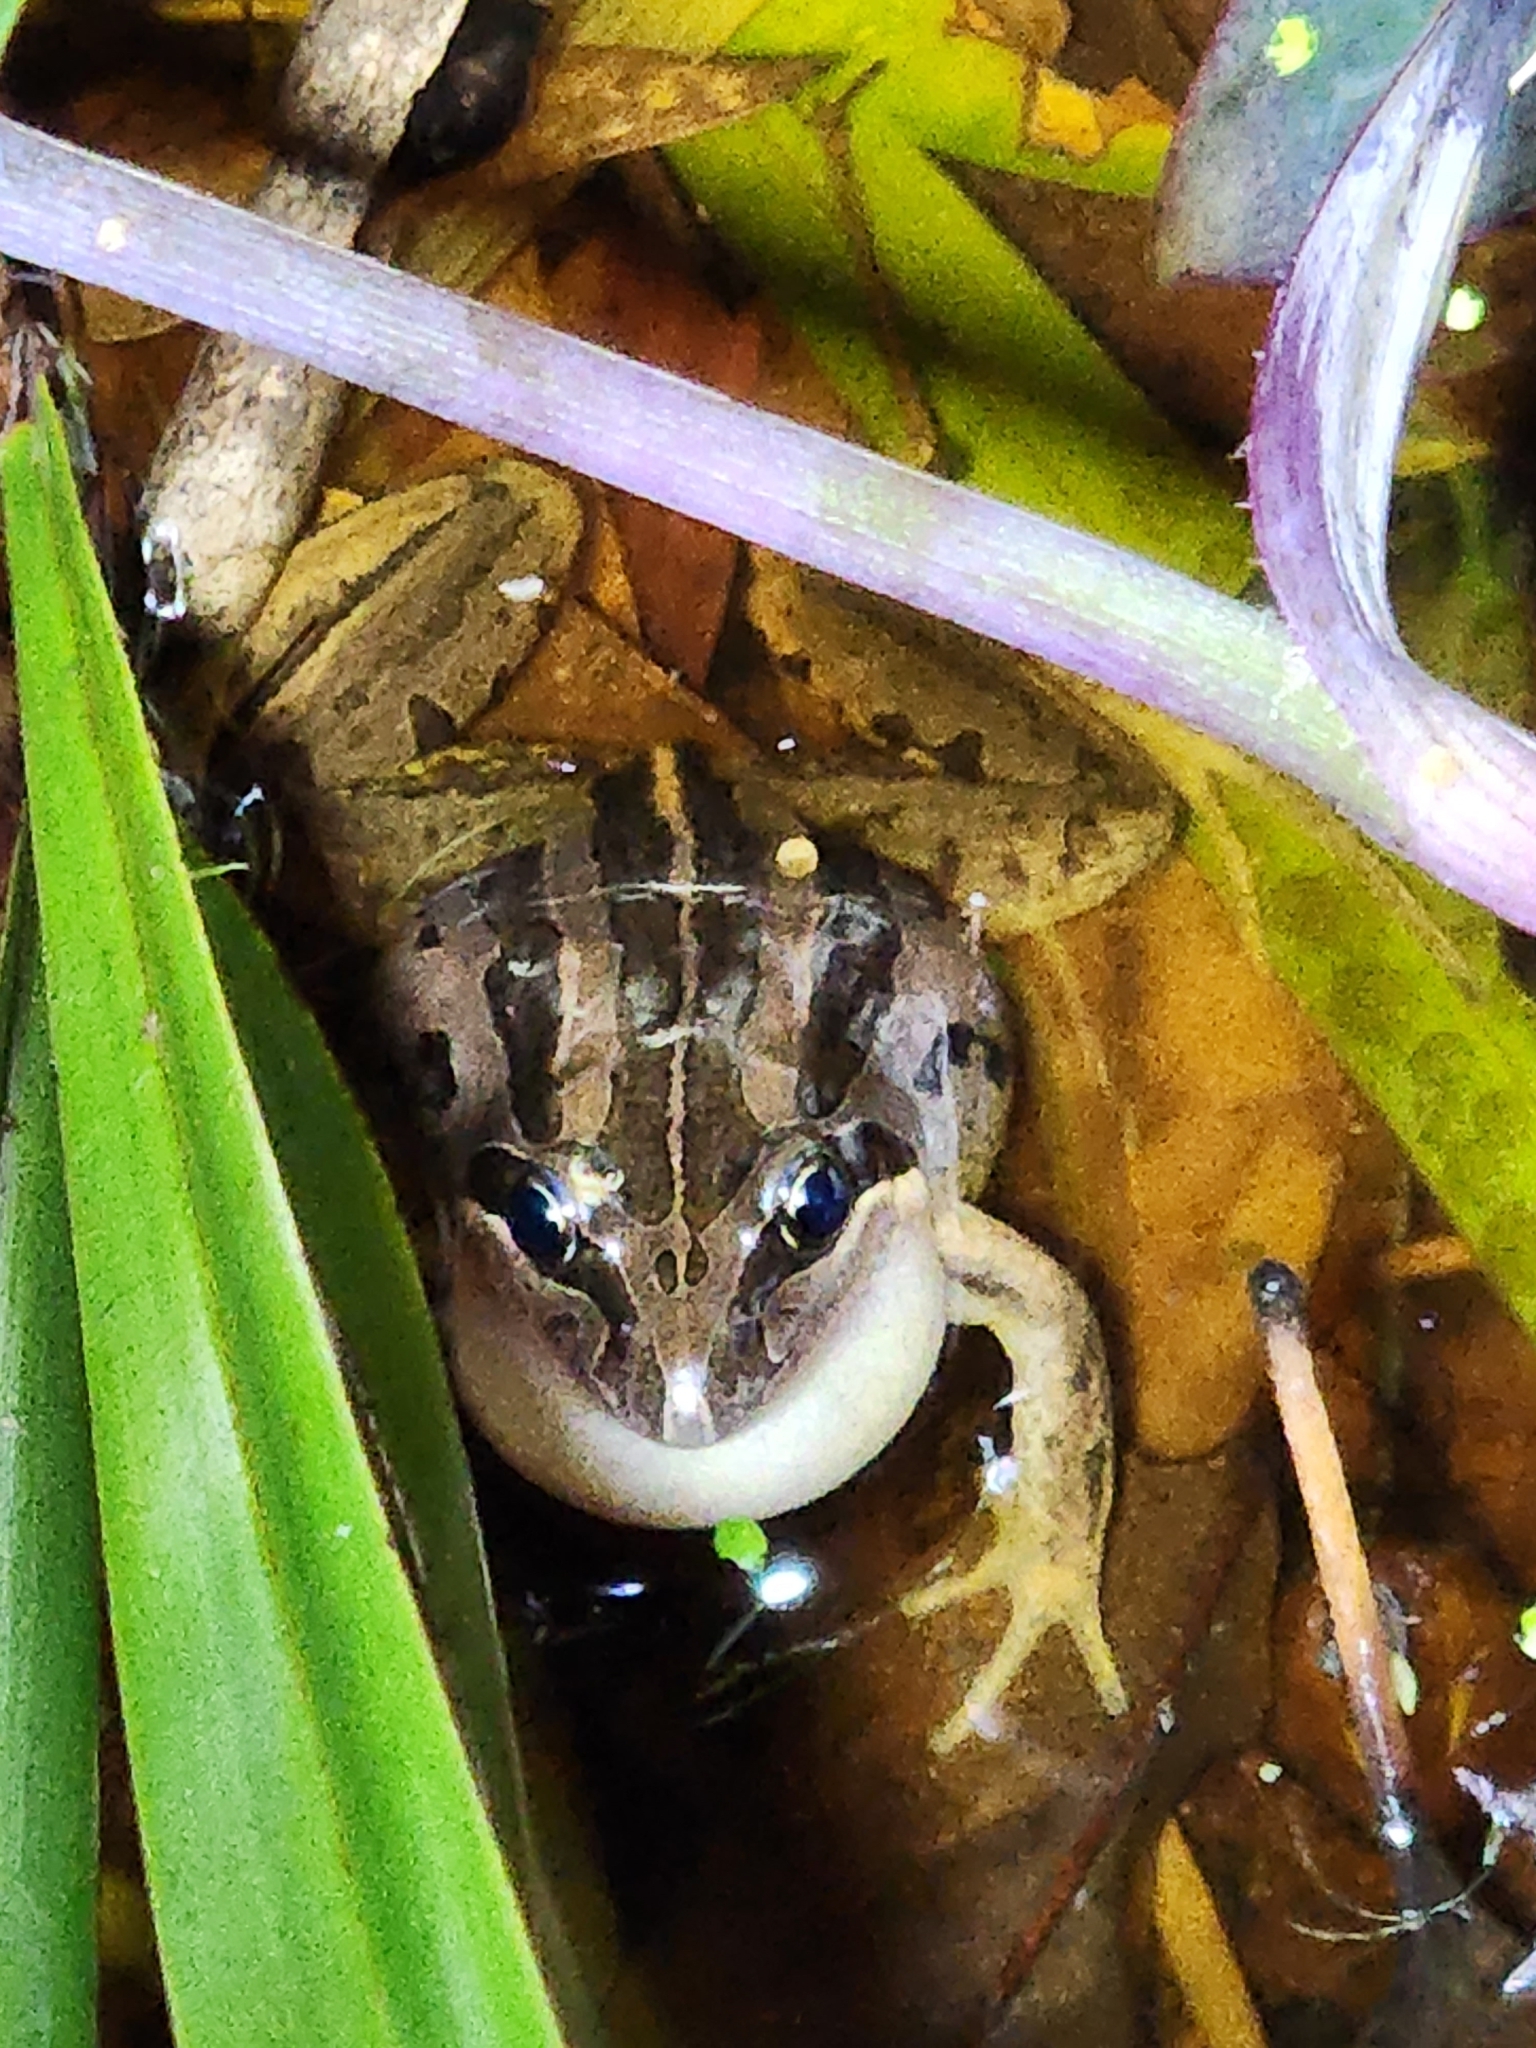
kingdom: Animalia
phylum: Chordata
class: Amphibia
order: Anura
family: Limnodynastidae
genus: Limnodynastes
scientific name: Limnodynastes peronii
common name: Brown frog
